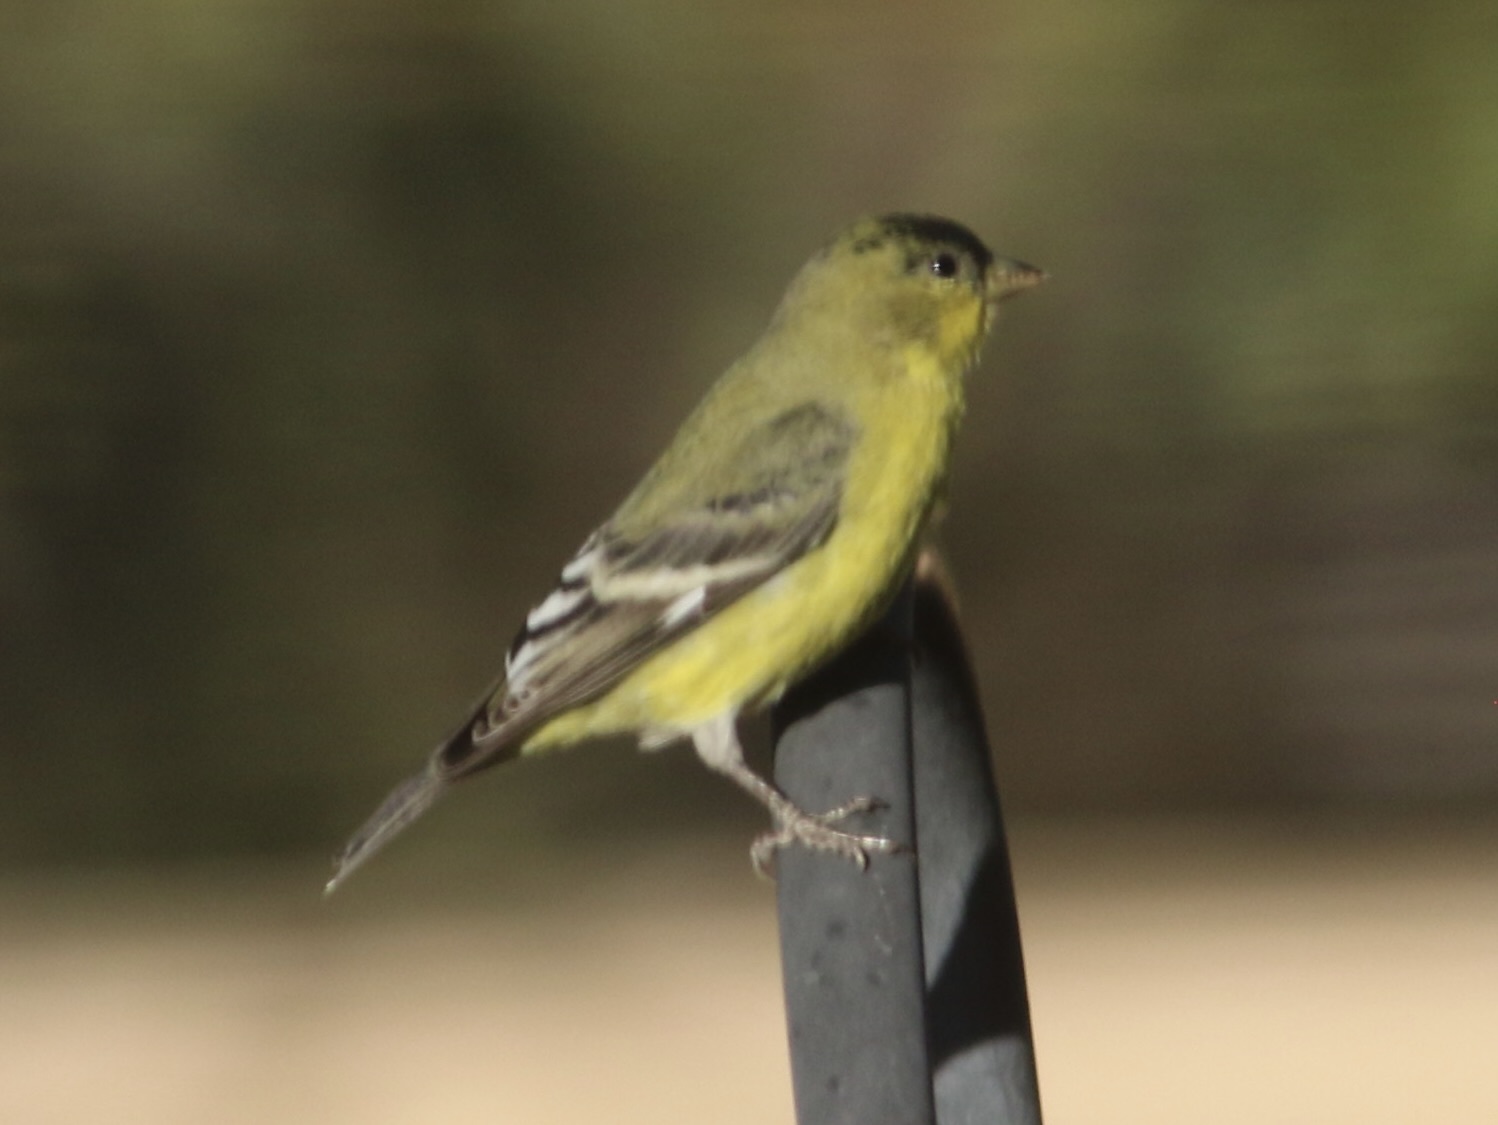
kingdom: Animalia
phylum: Chordata
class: Aves
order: Passeriformes
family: Fringillidae
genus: Spinus
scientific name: Spinus psaltria
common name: Lesser goldfinch
